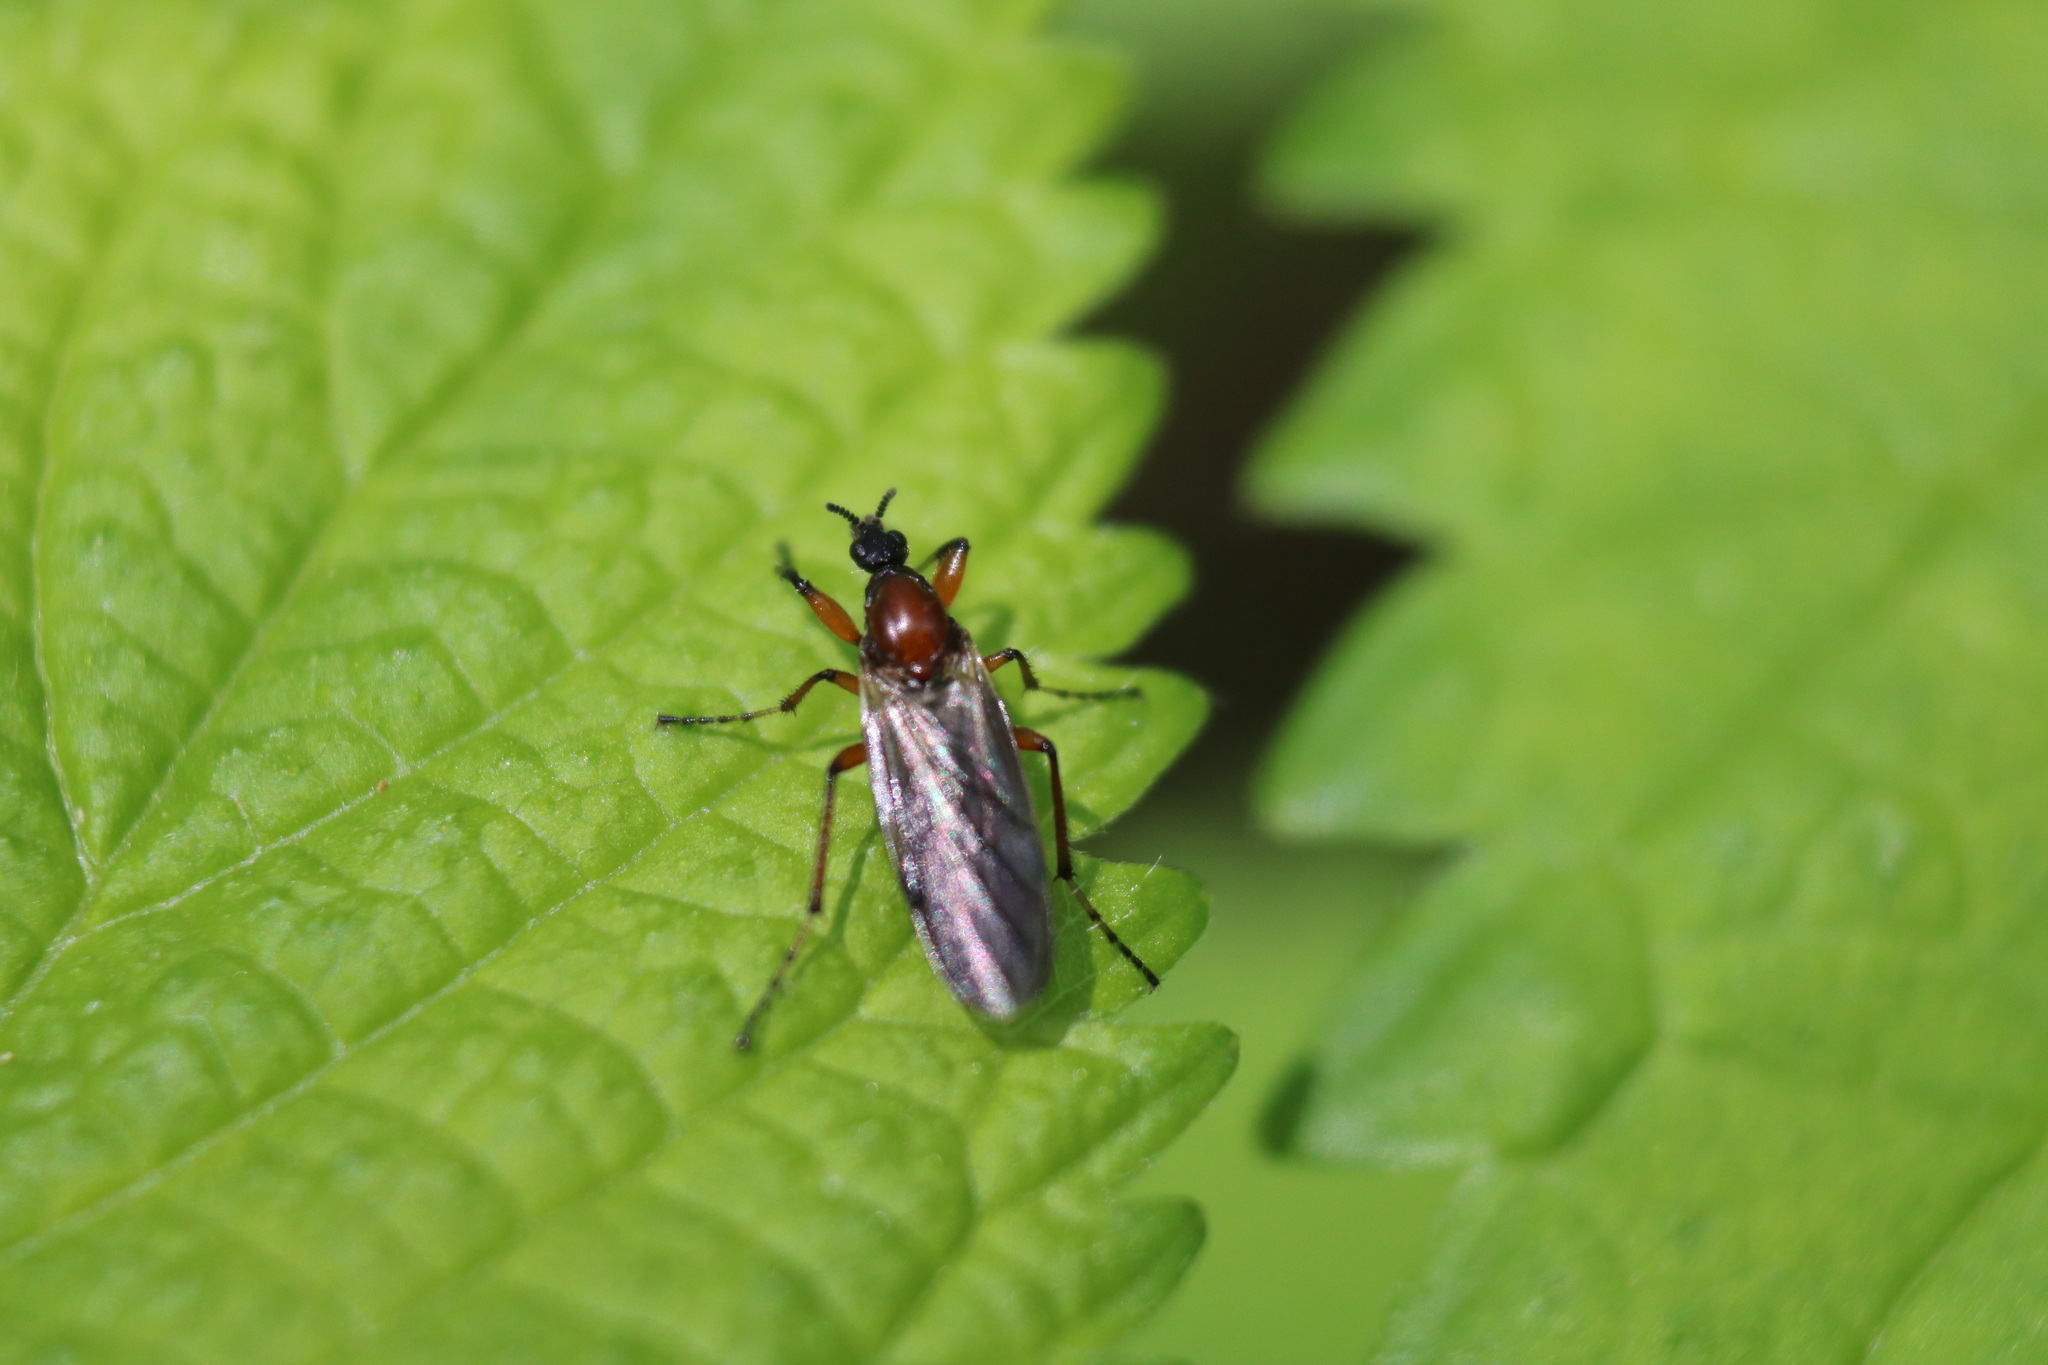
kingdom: Animalia
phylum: Arthropoda
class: Insecta
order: Diptera
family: Bibionidae
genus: Bibio
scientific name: Bibio articulatus
